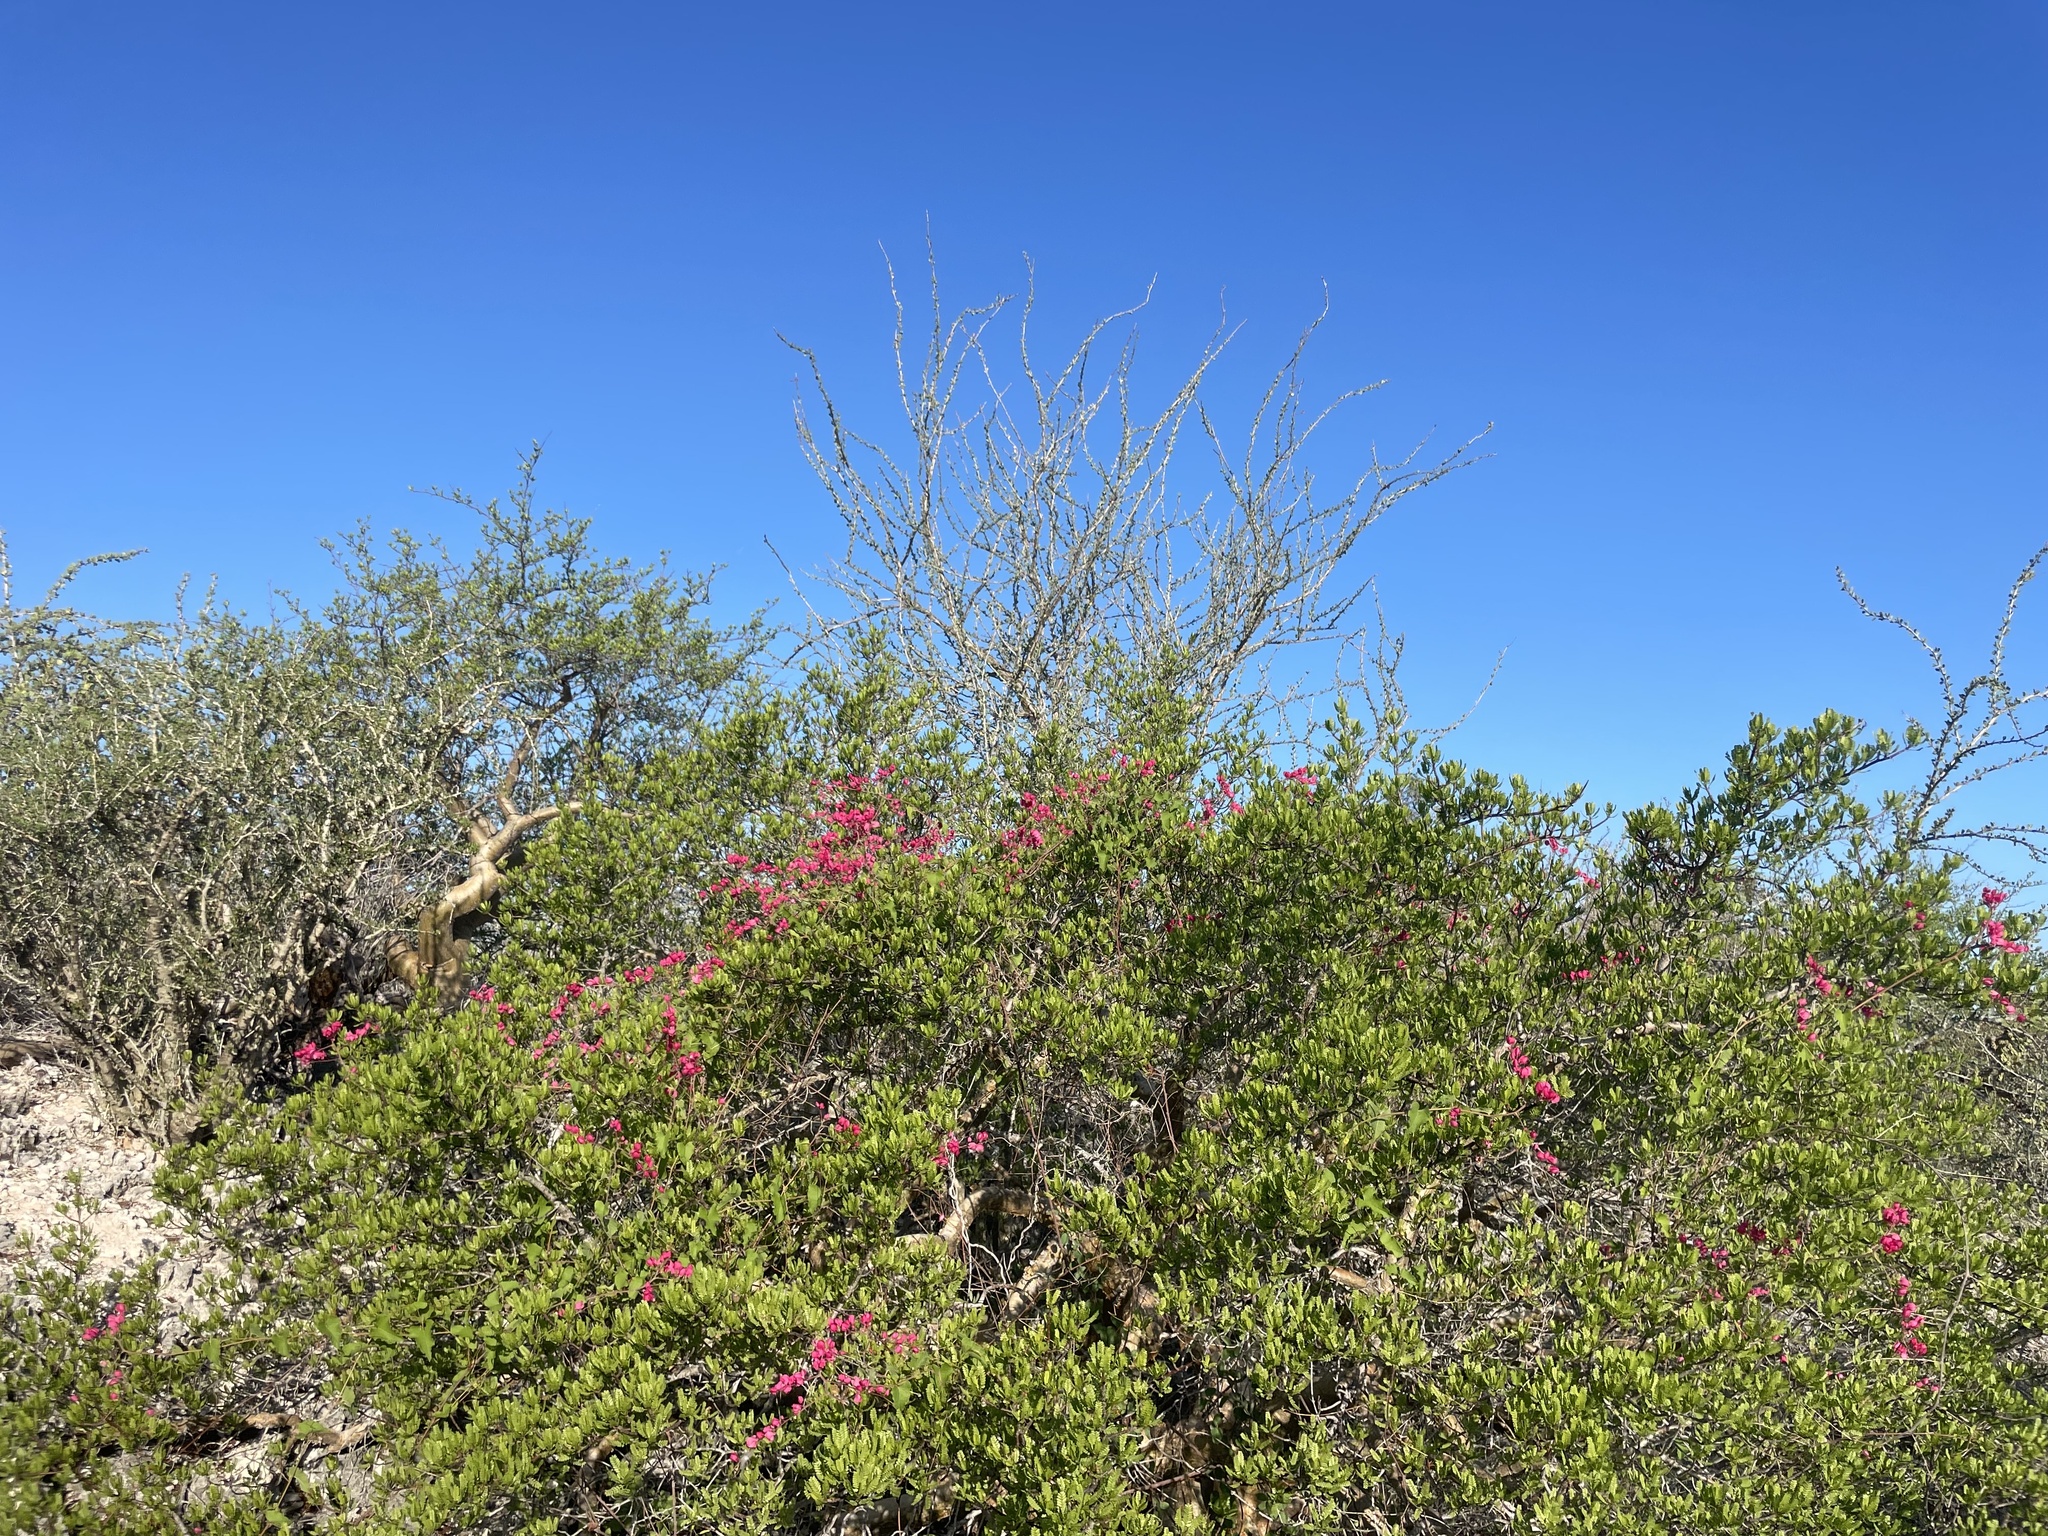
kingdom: Plantae
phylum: Tracheophyta
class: Magnoliopsida
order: Caryophyllales
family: Polygonaceae
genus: Antigonon
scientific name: Antigonon leptopus
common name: Coral vine
